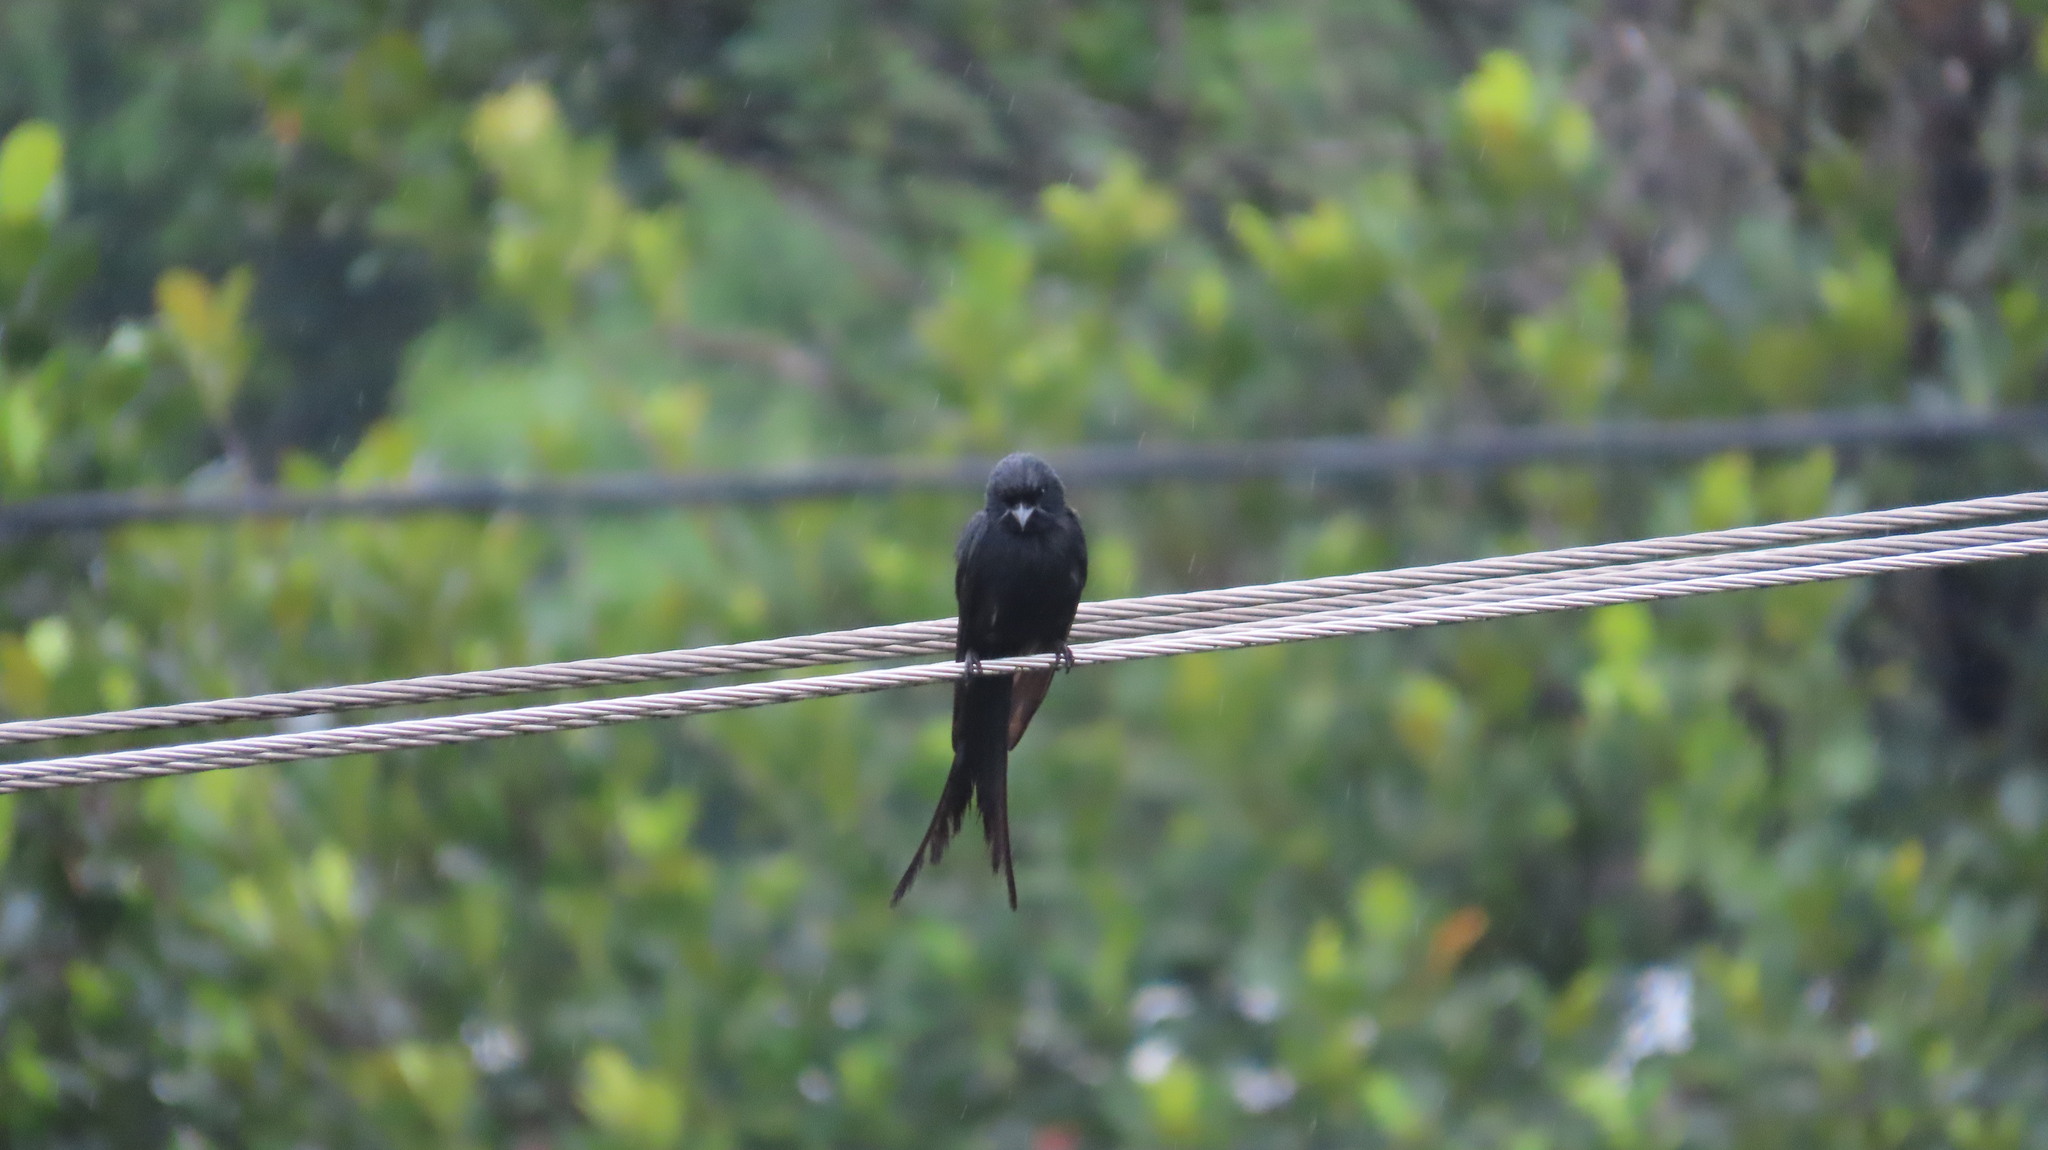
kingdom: Animalia
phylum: Chordata
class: Aves
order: Passeriformes
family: Dicruridae
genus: Dicrurus
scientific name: Dicrurus macrocercus
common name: Black drongo
